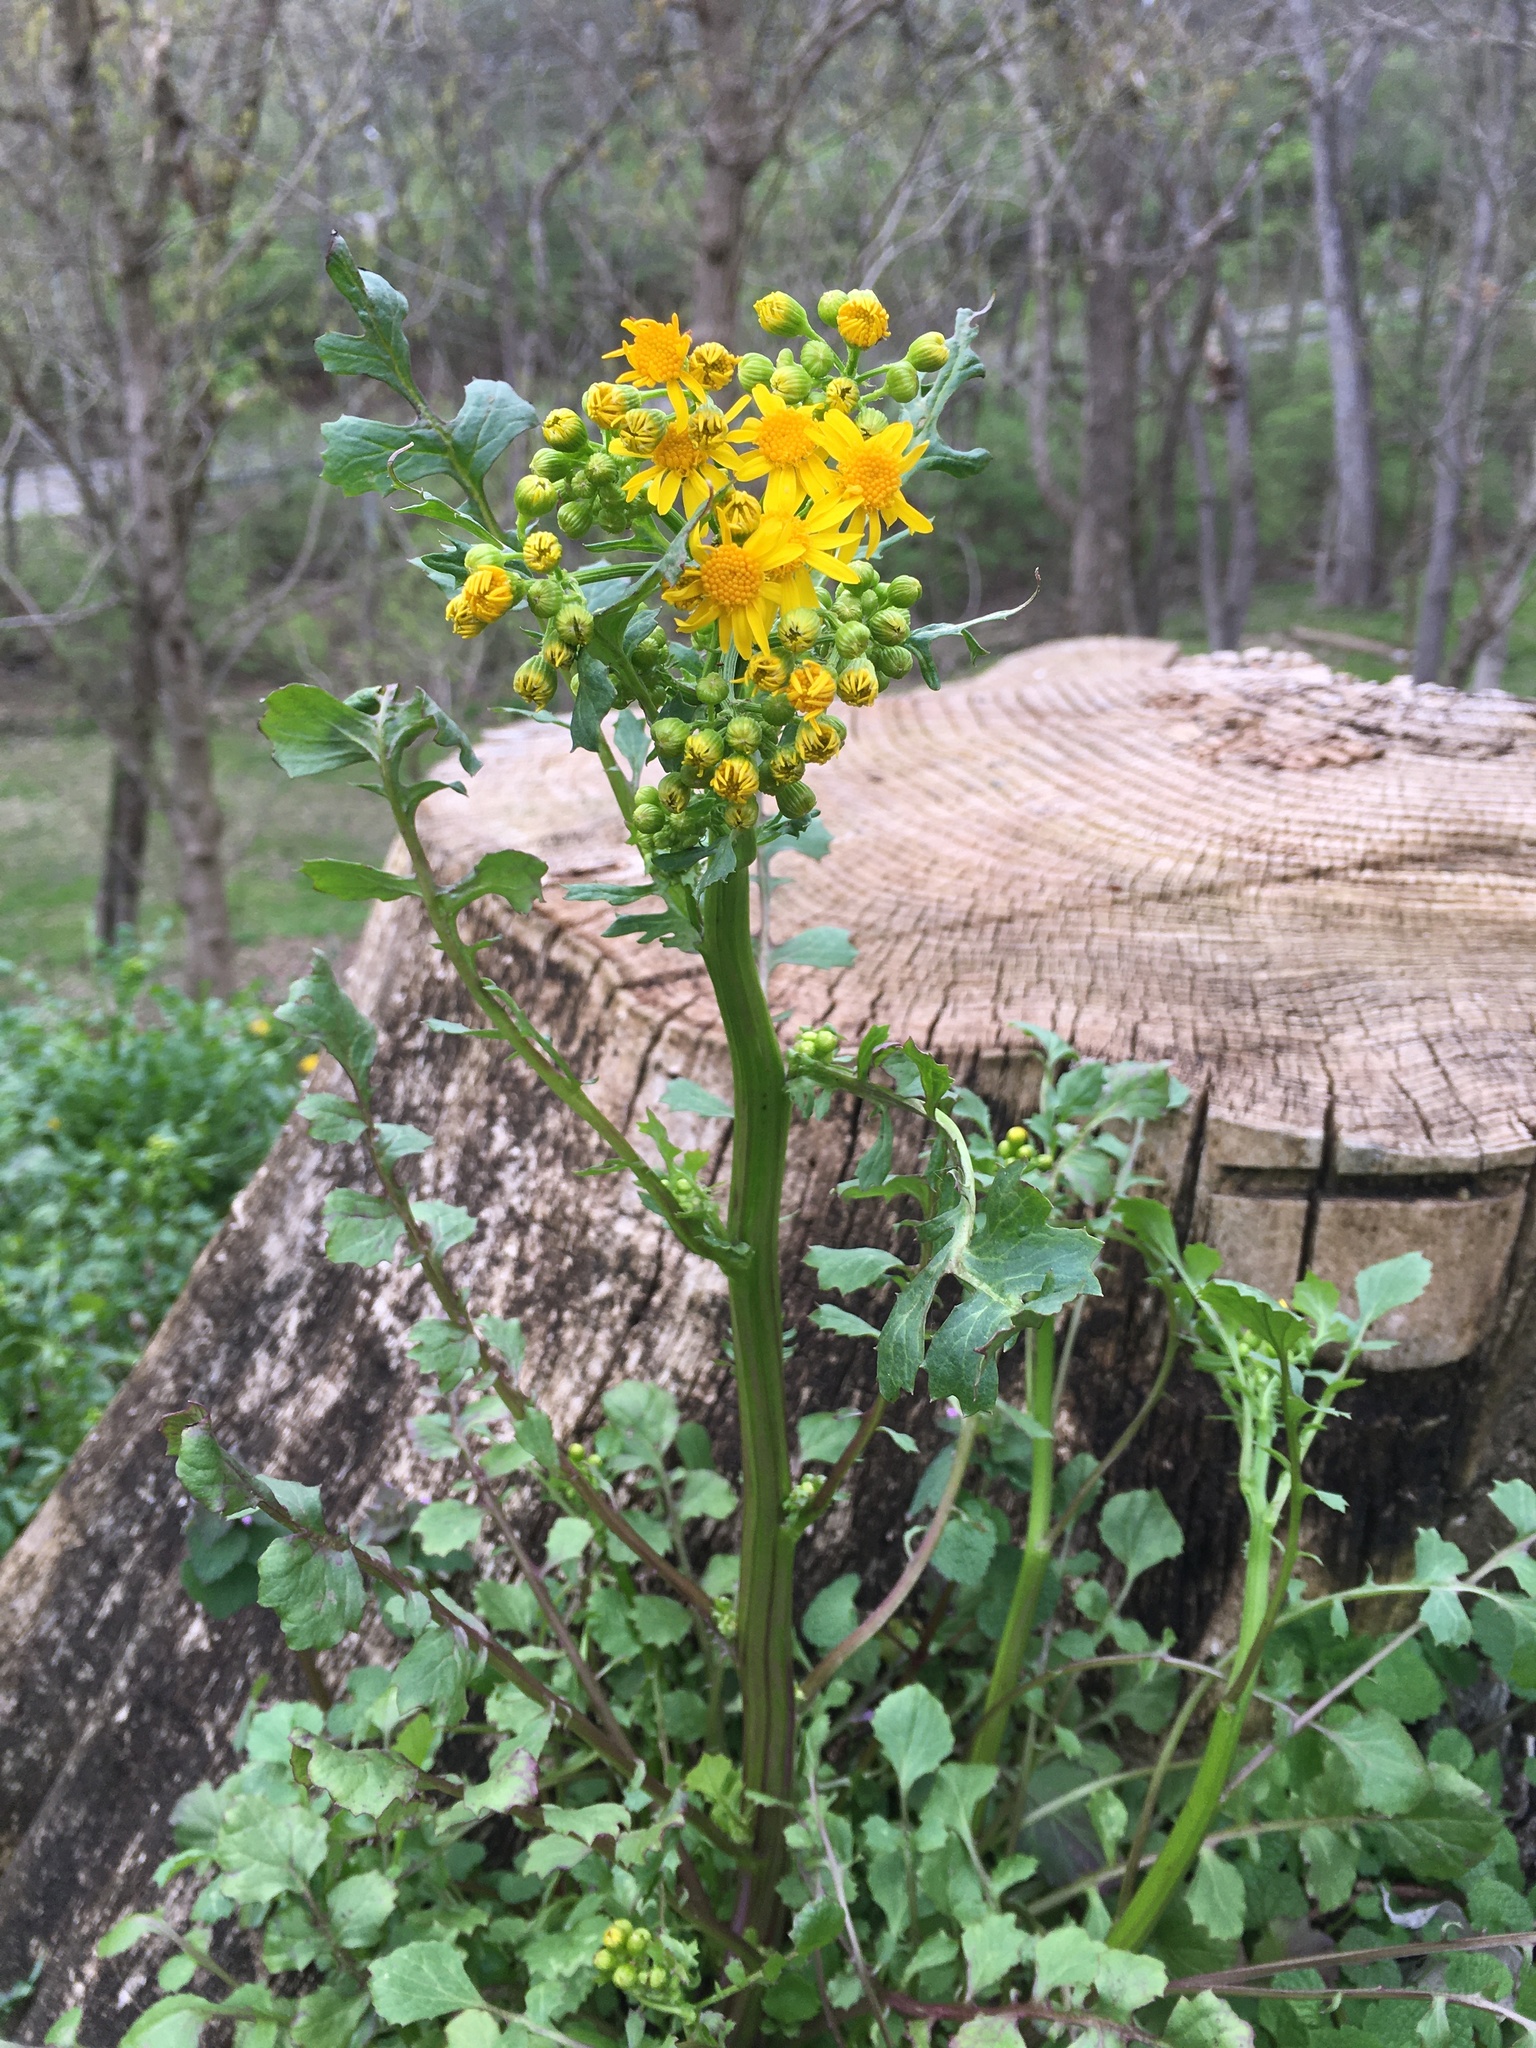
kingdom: Plantae
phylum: Tracheophyta
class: Magnoliopsida
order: Asterales
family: Asteraceae
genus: Packera
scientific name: Packera glabella
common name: Butterweed
